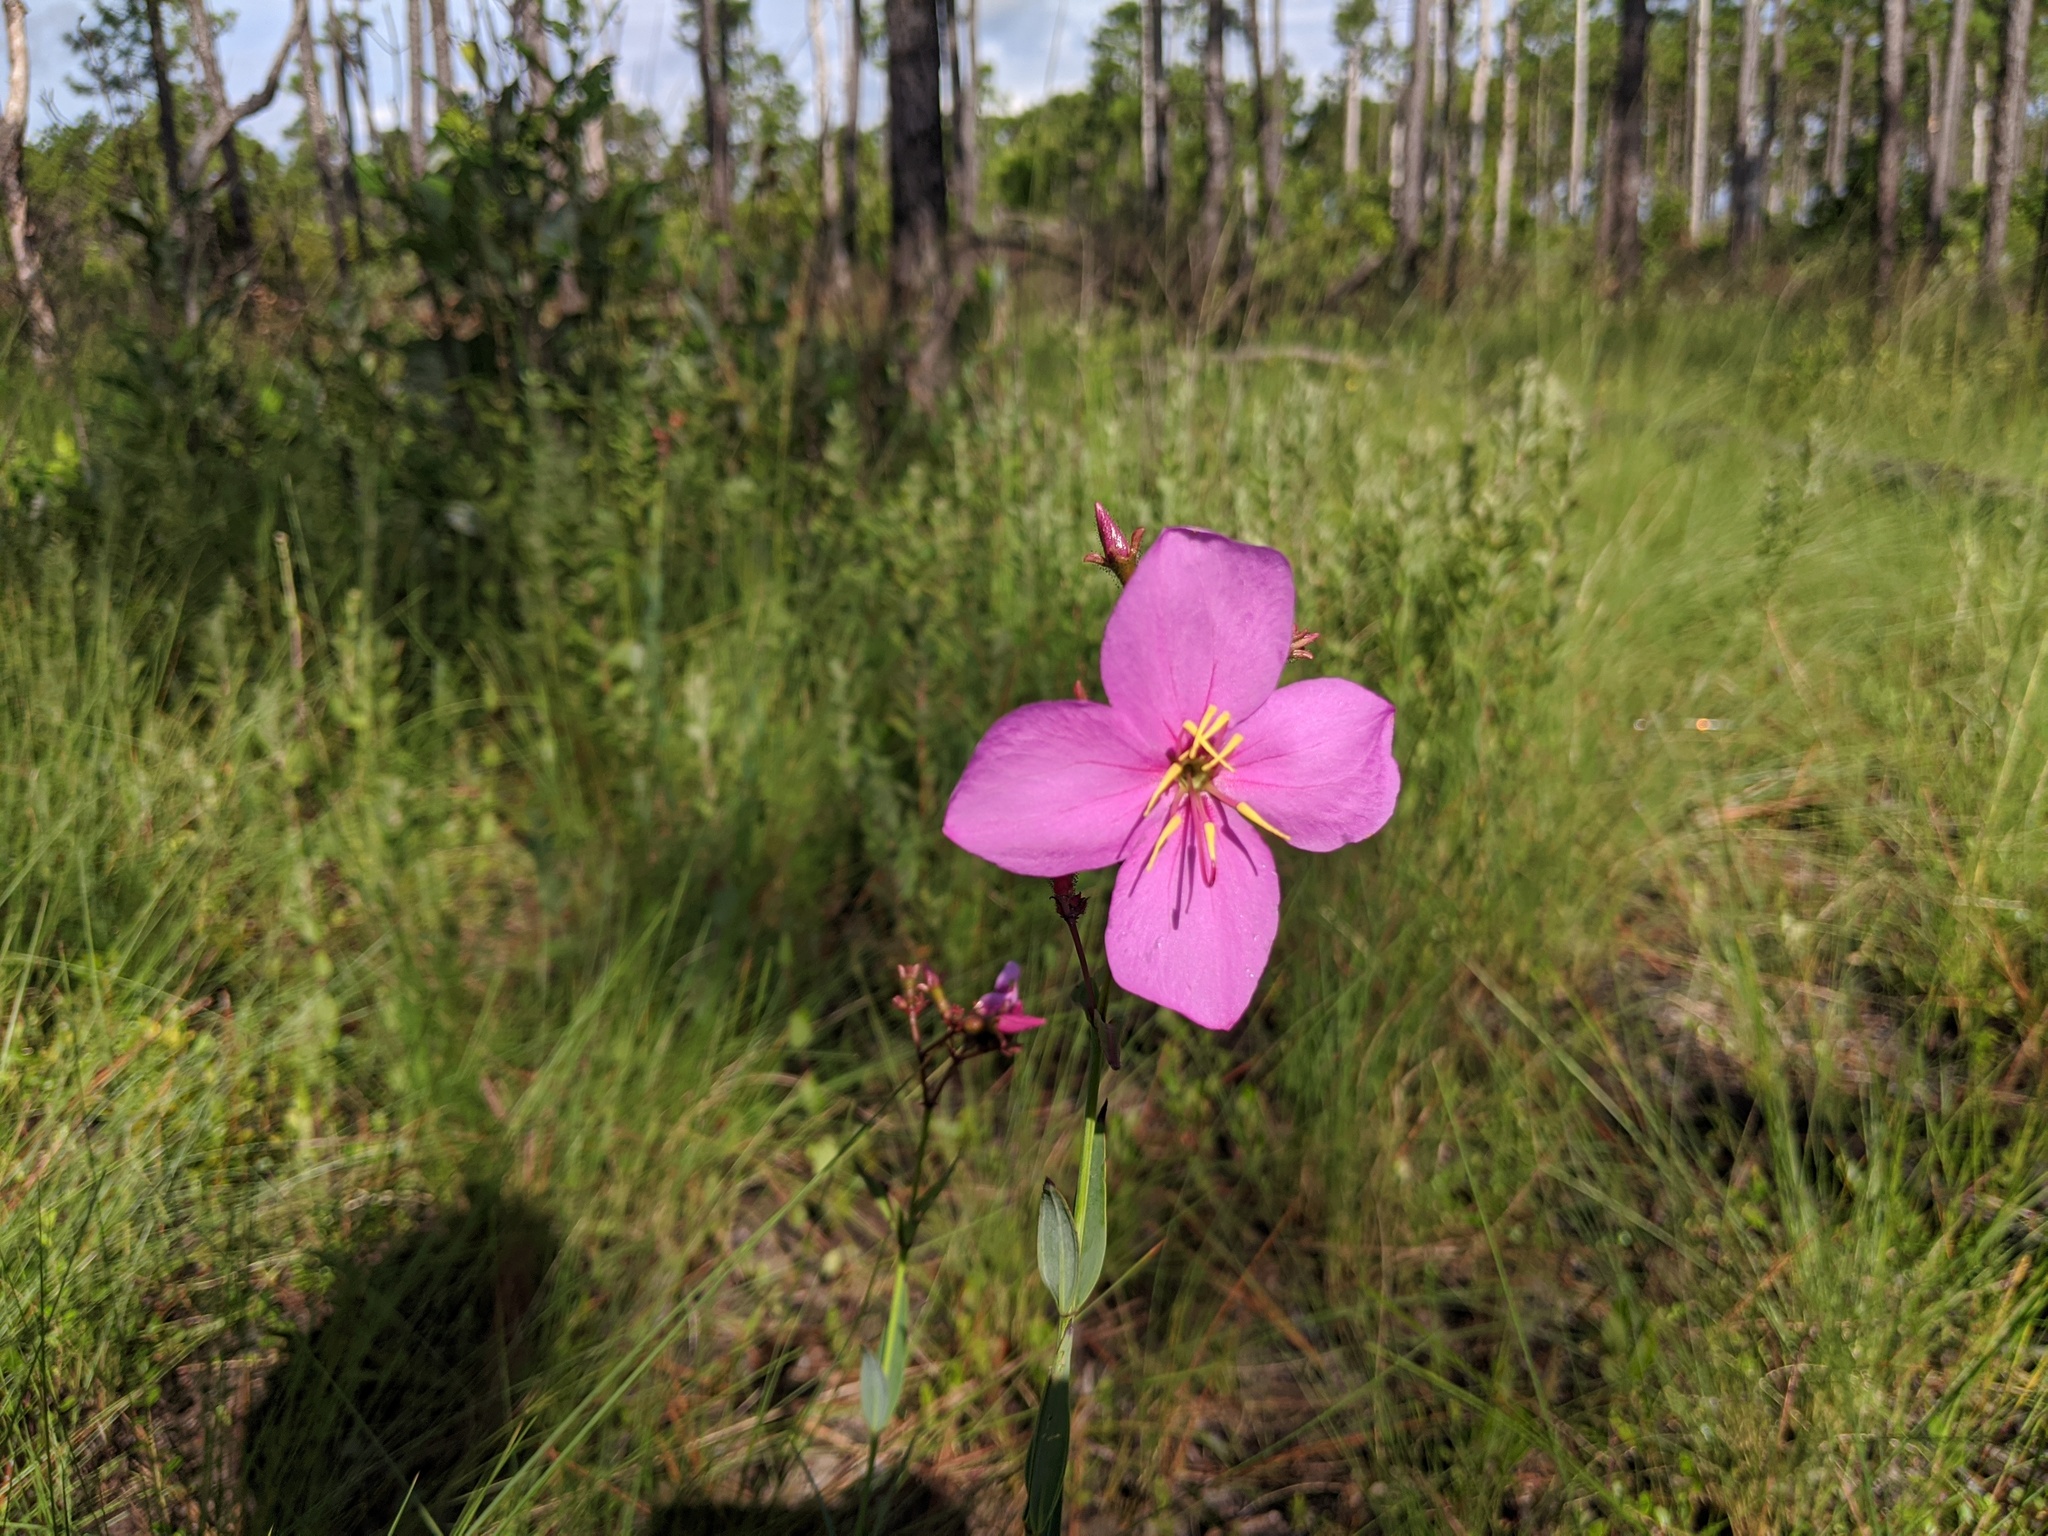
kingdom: Plantae
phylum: Tracheophyta
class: Magnoliopsida
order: Myrtales
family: Melastomataceae
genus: Rhexia
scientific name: Rhexia alifanus
